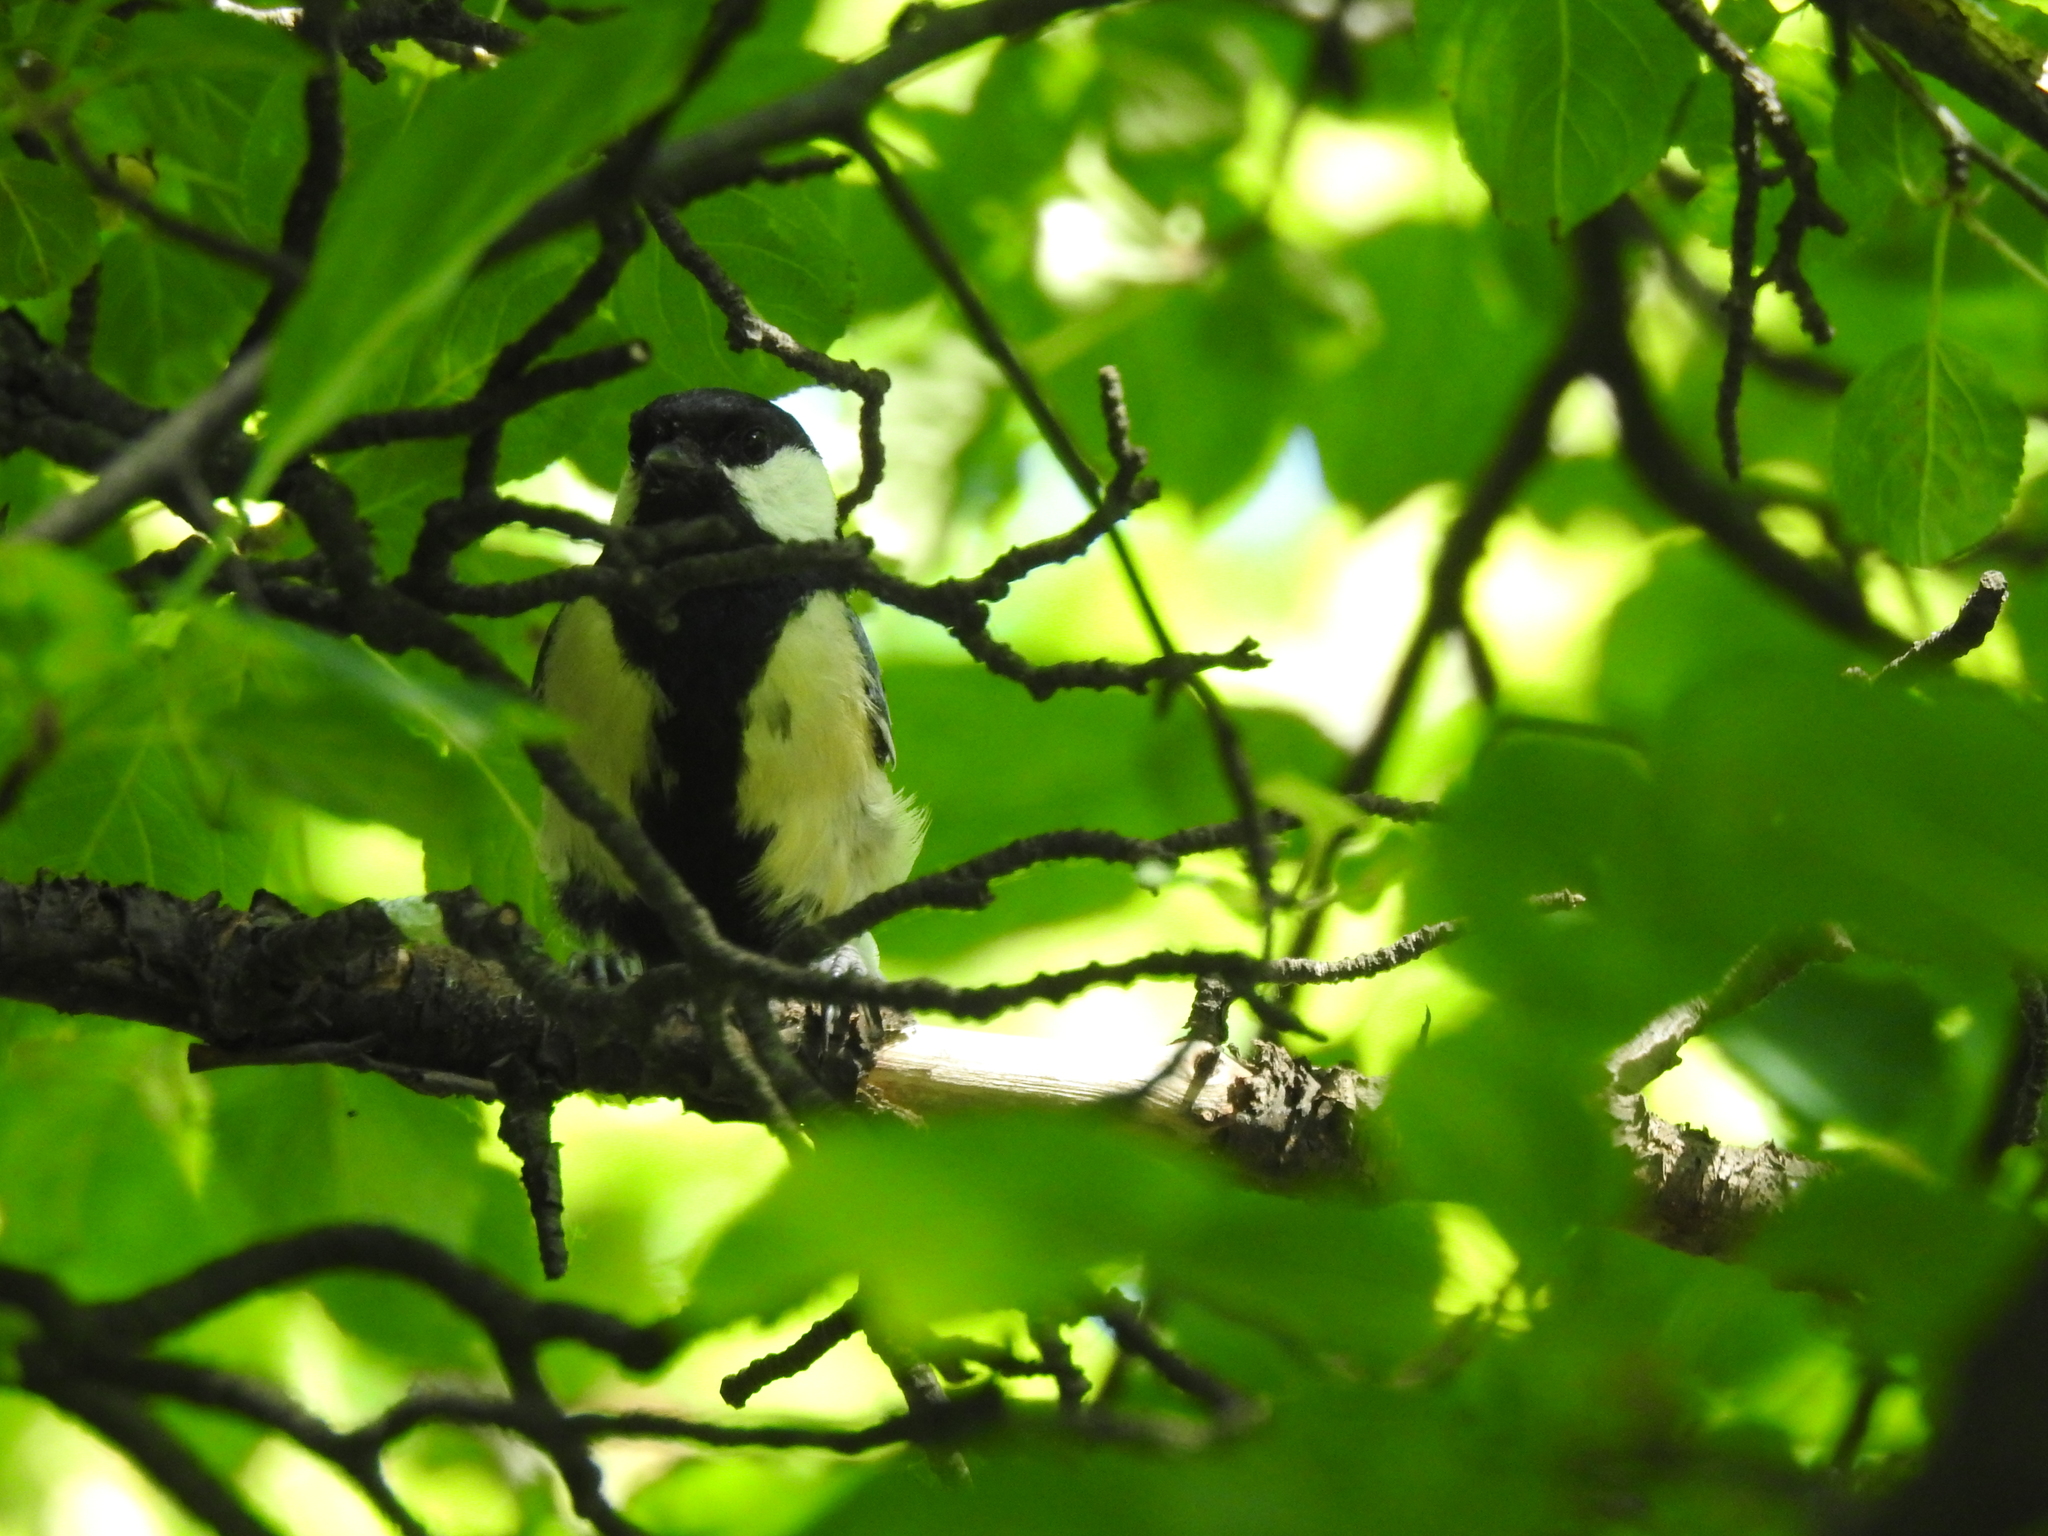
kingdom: Animalia
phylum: Chordata
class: Aves
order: Passeriformes
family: Paridae
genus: Parus
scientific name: Parus major
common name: Great tit
